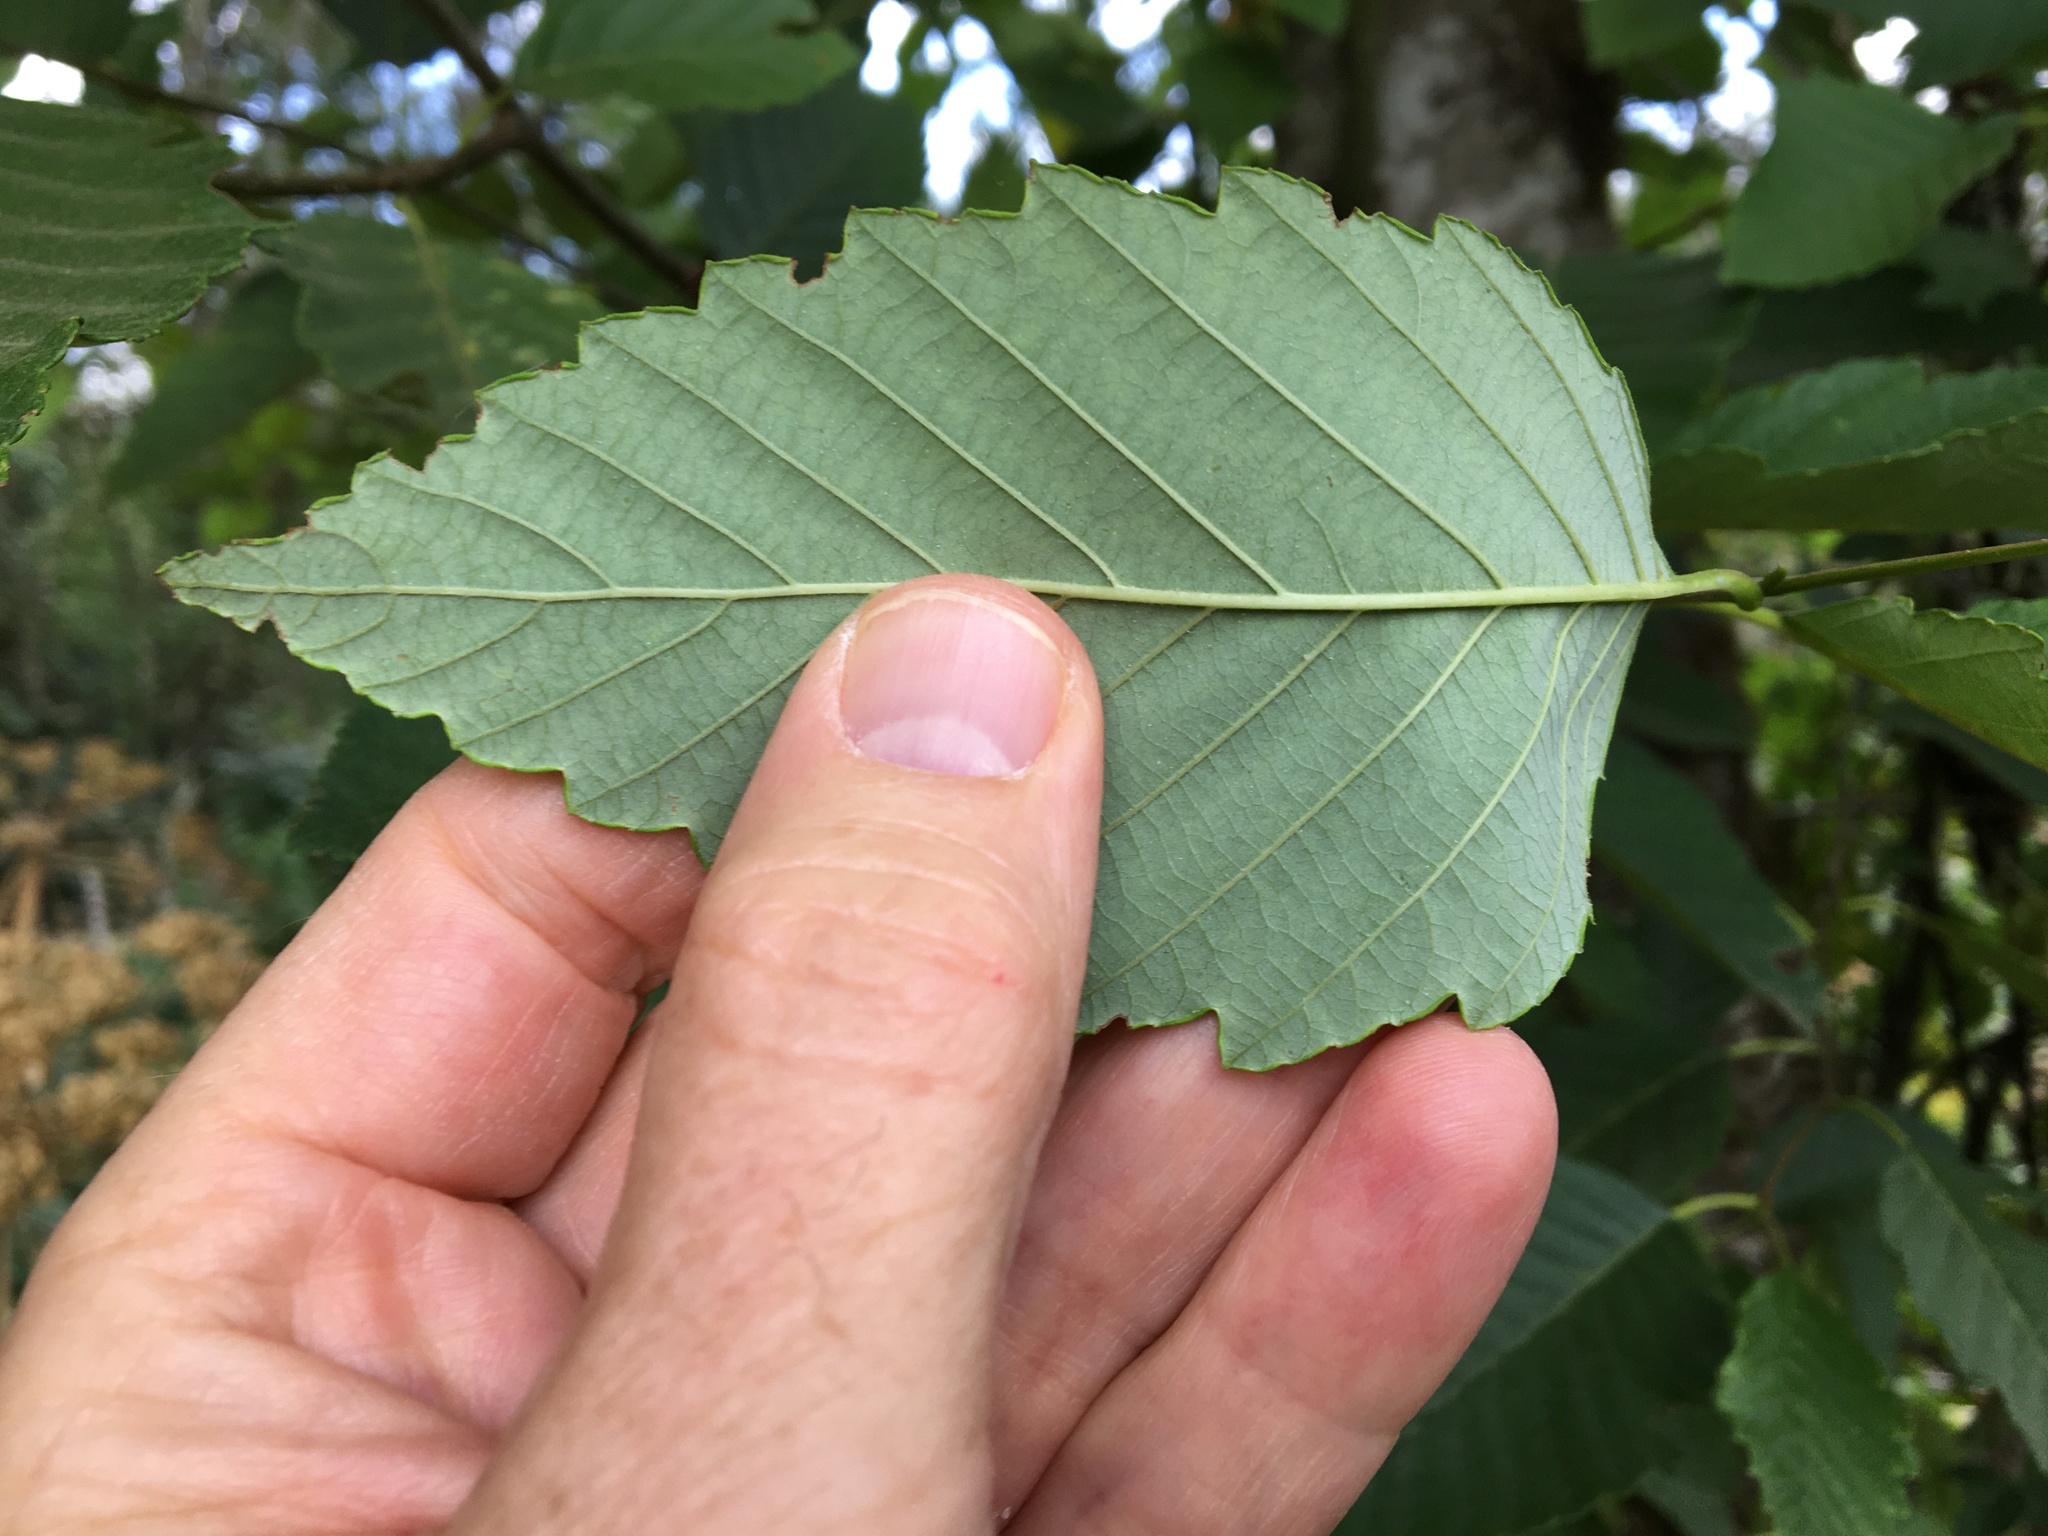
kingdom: Plantae
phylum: Tracheophyta
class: Magnoliopsida
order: Fagales
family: Betulaceae
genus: Alnus
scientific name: Alnus rubra
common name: Red alder
